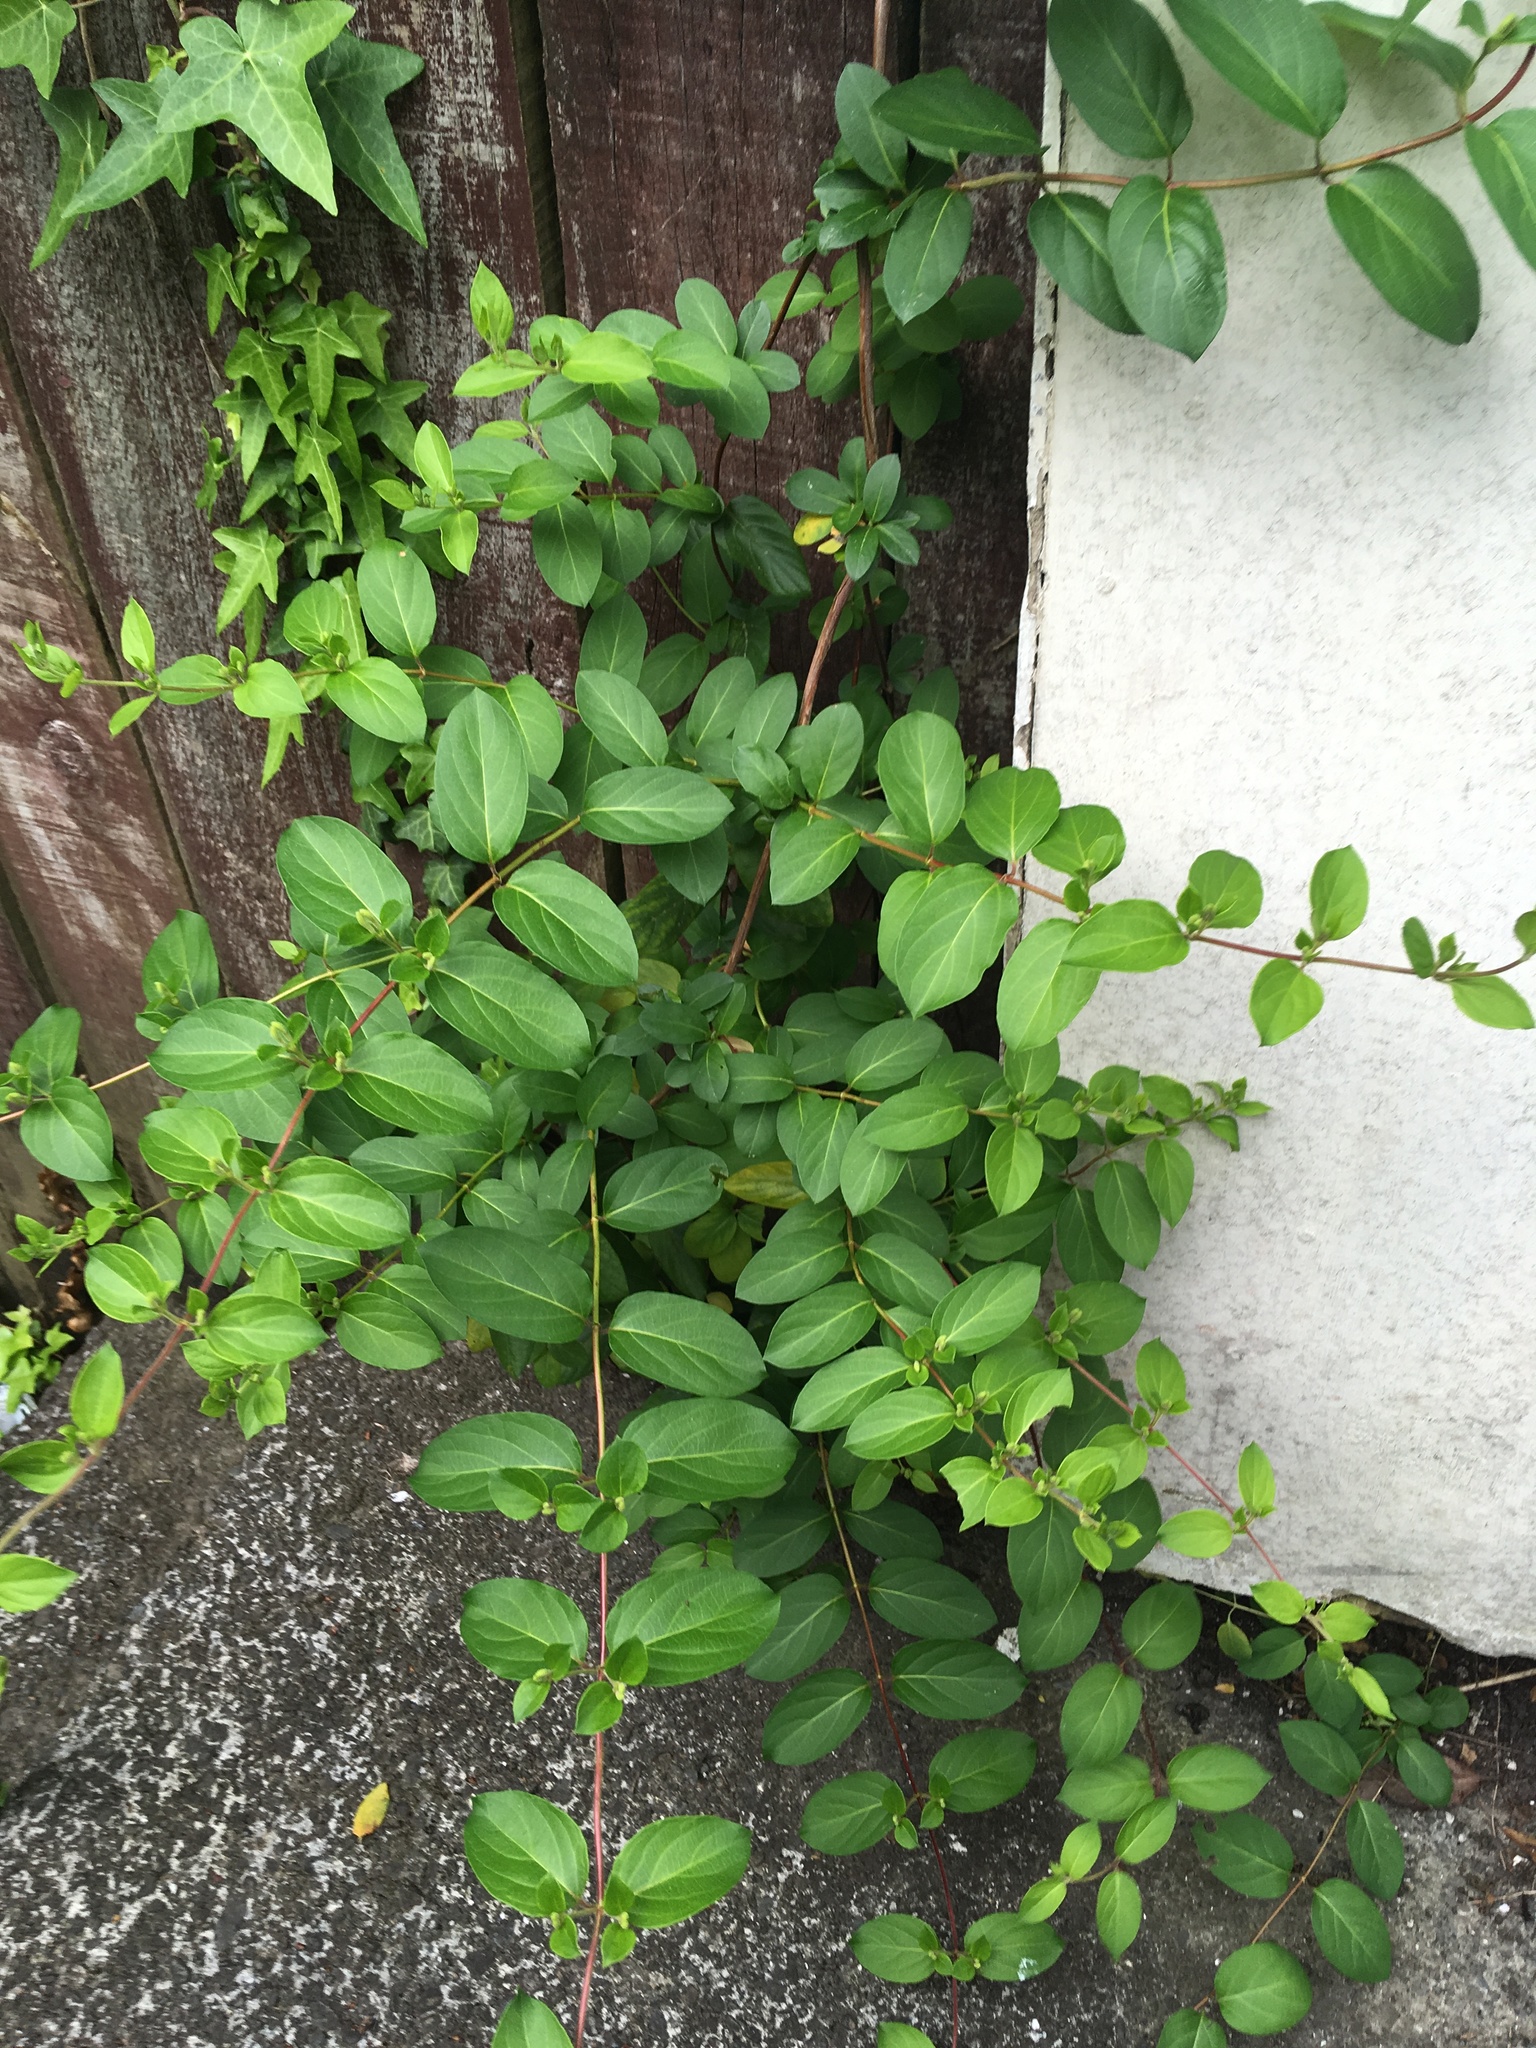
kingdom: Plantae
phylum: Tracheophyta
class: Magnoliopsida
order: Dipsacales
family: Caprifoliaceae
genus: Lonicera
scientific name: Lonicera japonica
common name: Japanese honeysuckle
